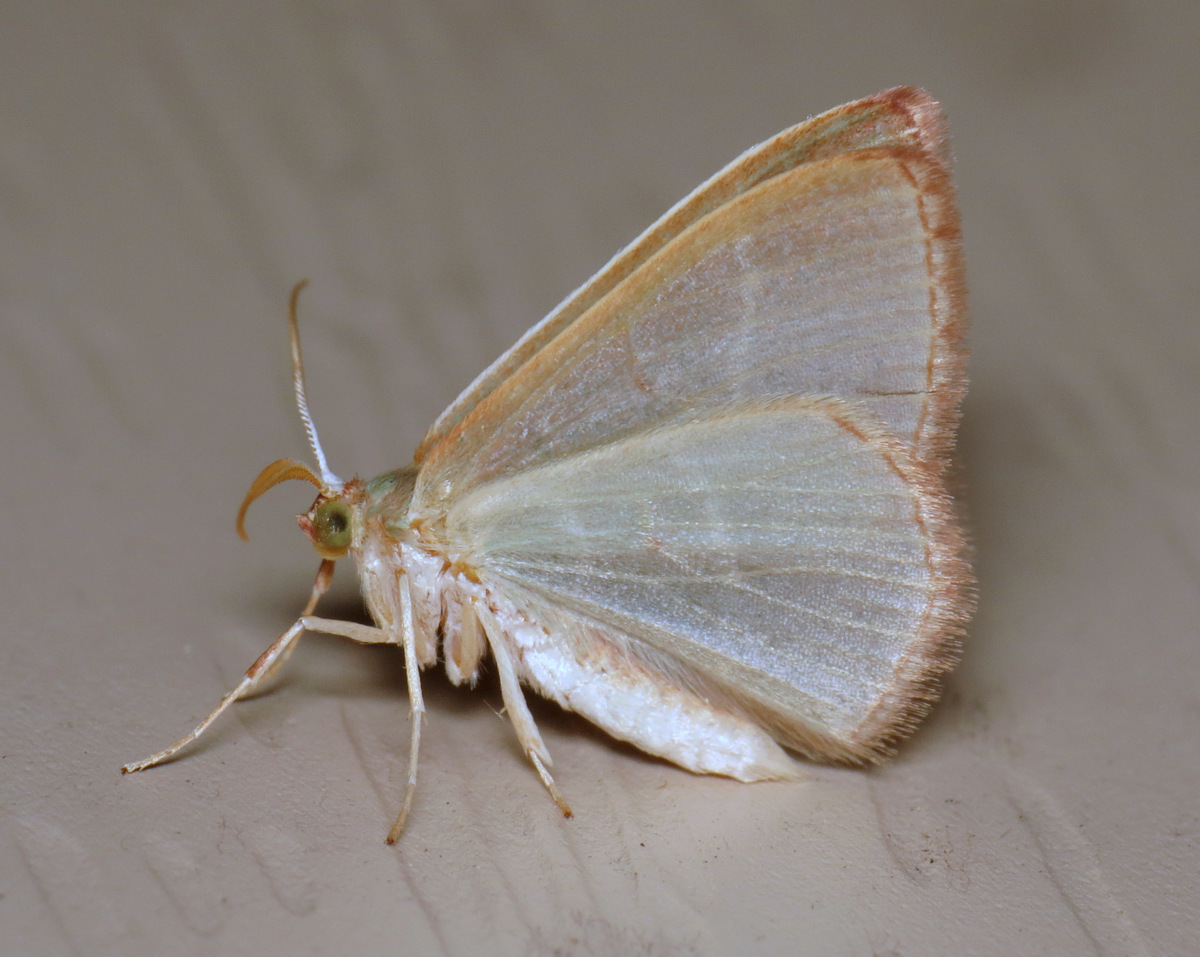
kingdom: Animalia
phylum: Arthropoda
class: Insecta
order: Lepidoptera
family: Geometridae
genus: Nemoria
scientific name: Nemoria bistriaria
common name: Red-fringed emerald
